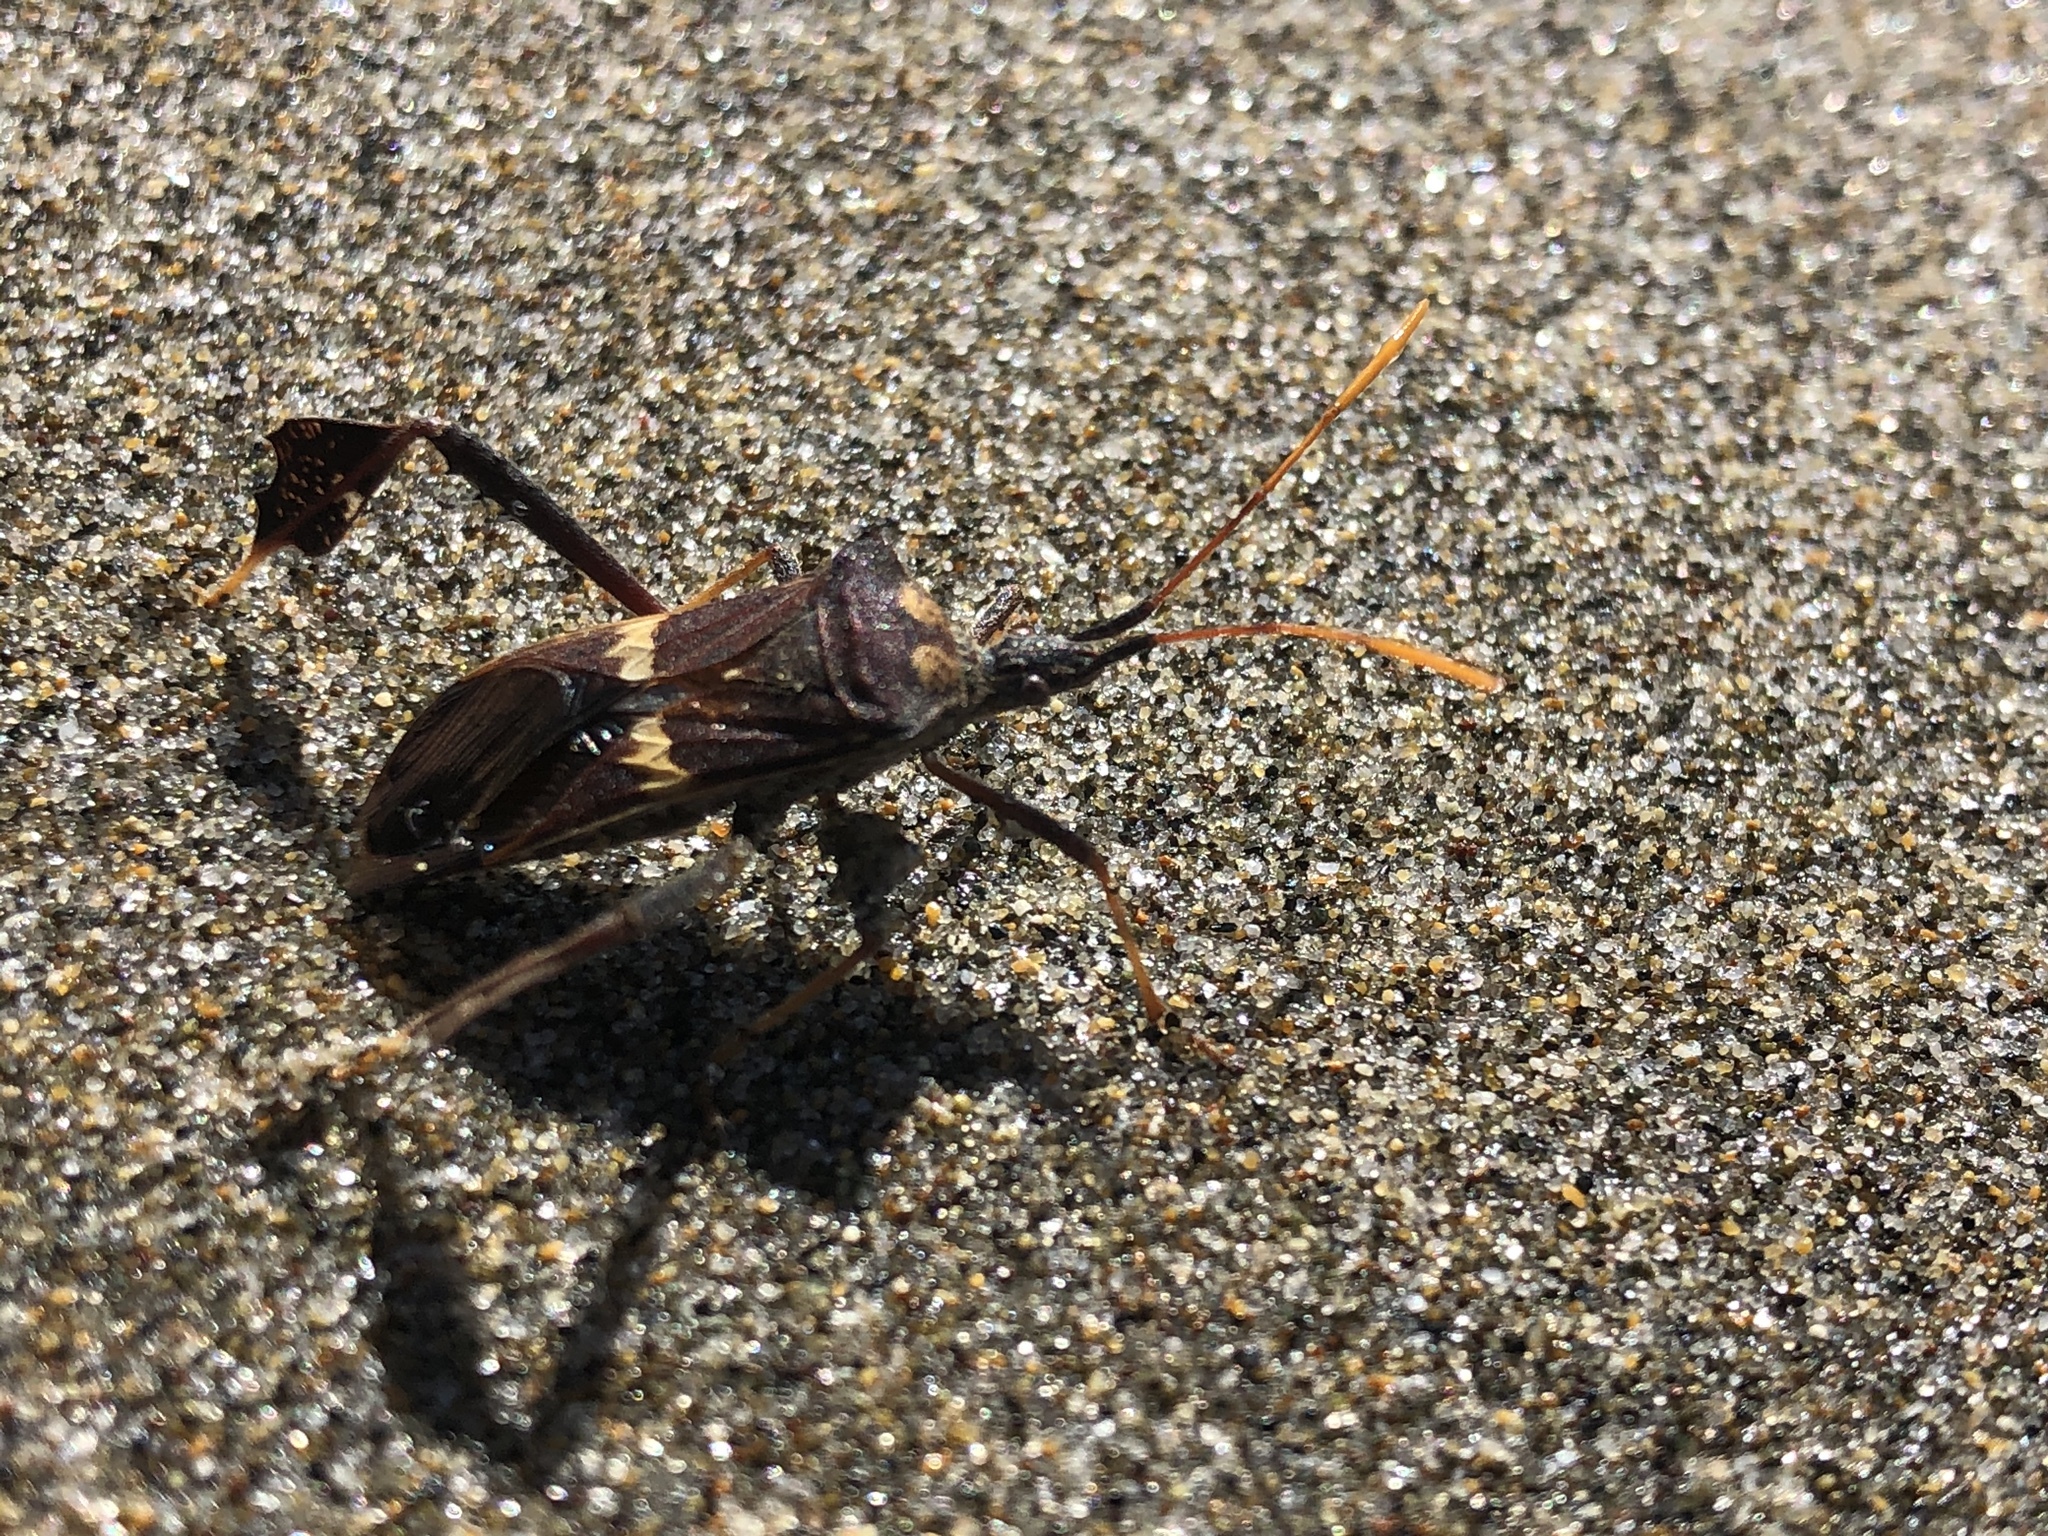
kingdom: Animalia
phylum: Arthropoda
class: Insecta
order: Hemiptera
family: Coreidae
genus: Leptoglossus
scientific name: Leptoglossus zonatus
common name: Large-legged bug
